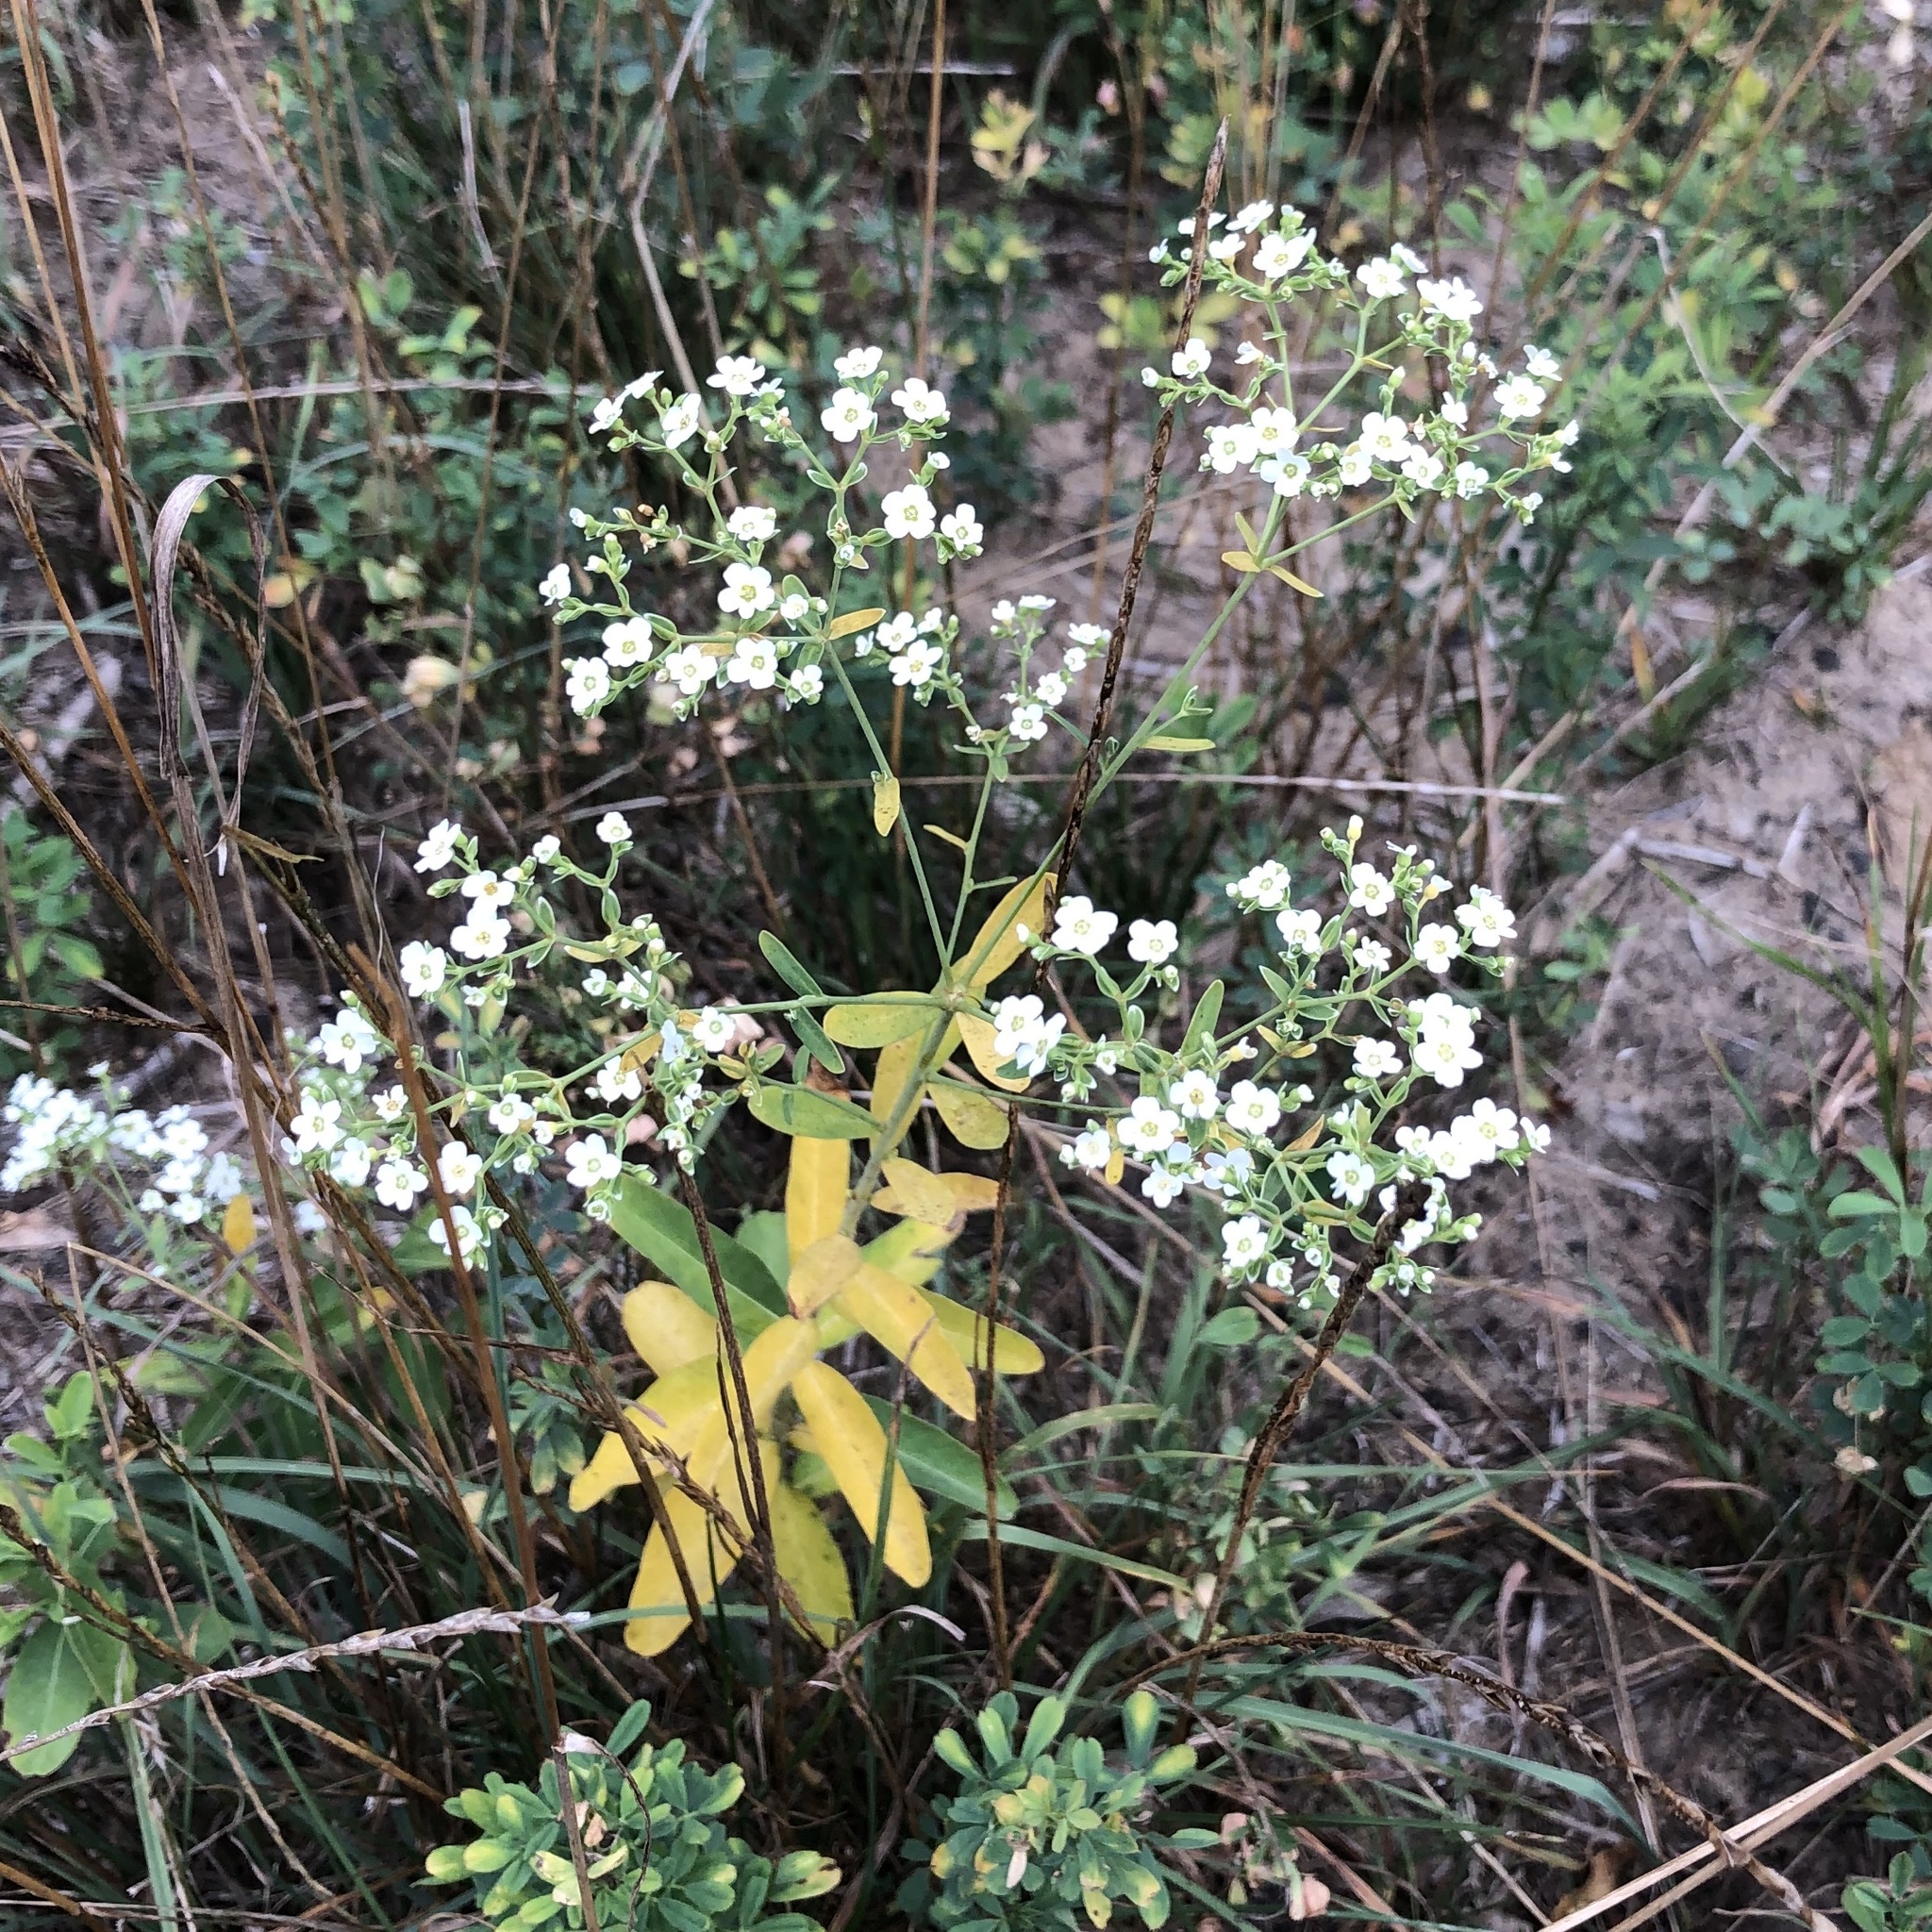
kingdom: Plantae
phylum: Tracheophyta
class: Magnoliopsida
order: Malpighiales
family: Euphorbiaceae
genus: Euphorbia
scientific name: Euphorbia corollata
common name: Flowering spurge
